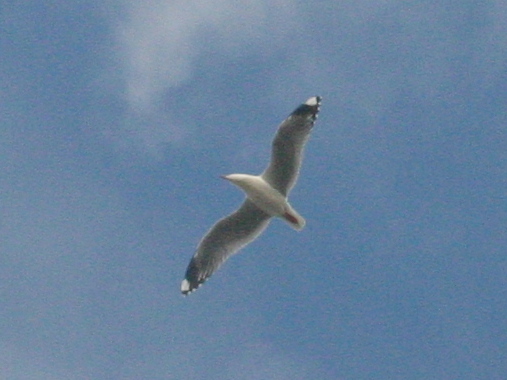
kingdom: Animalia
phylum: Chordata
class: Aves
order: Charadriiformes
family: Laridae
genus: Chroicocephalus
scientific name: Chroicocephalus novaehollandiae
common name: Silver gull
